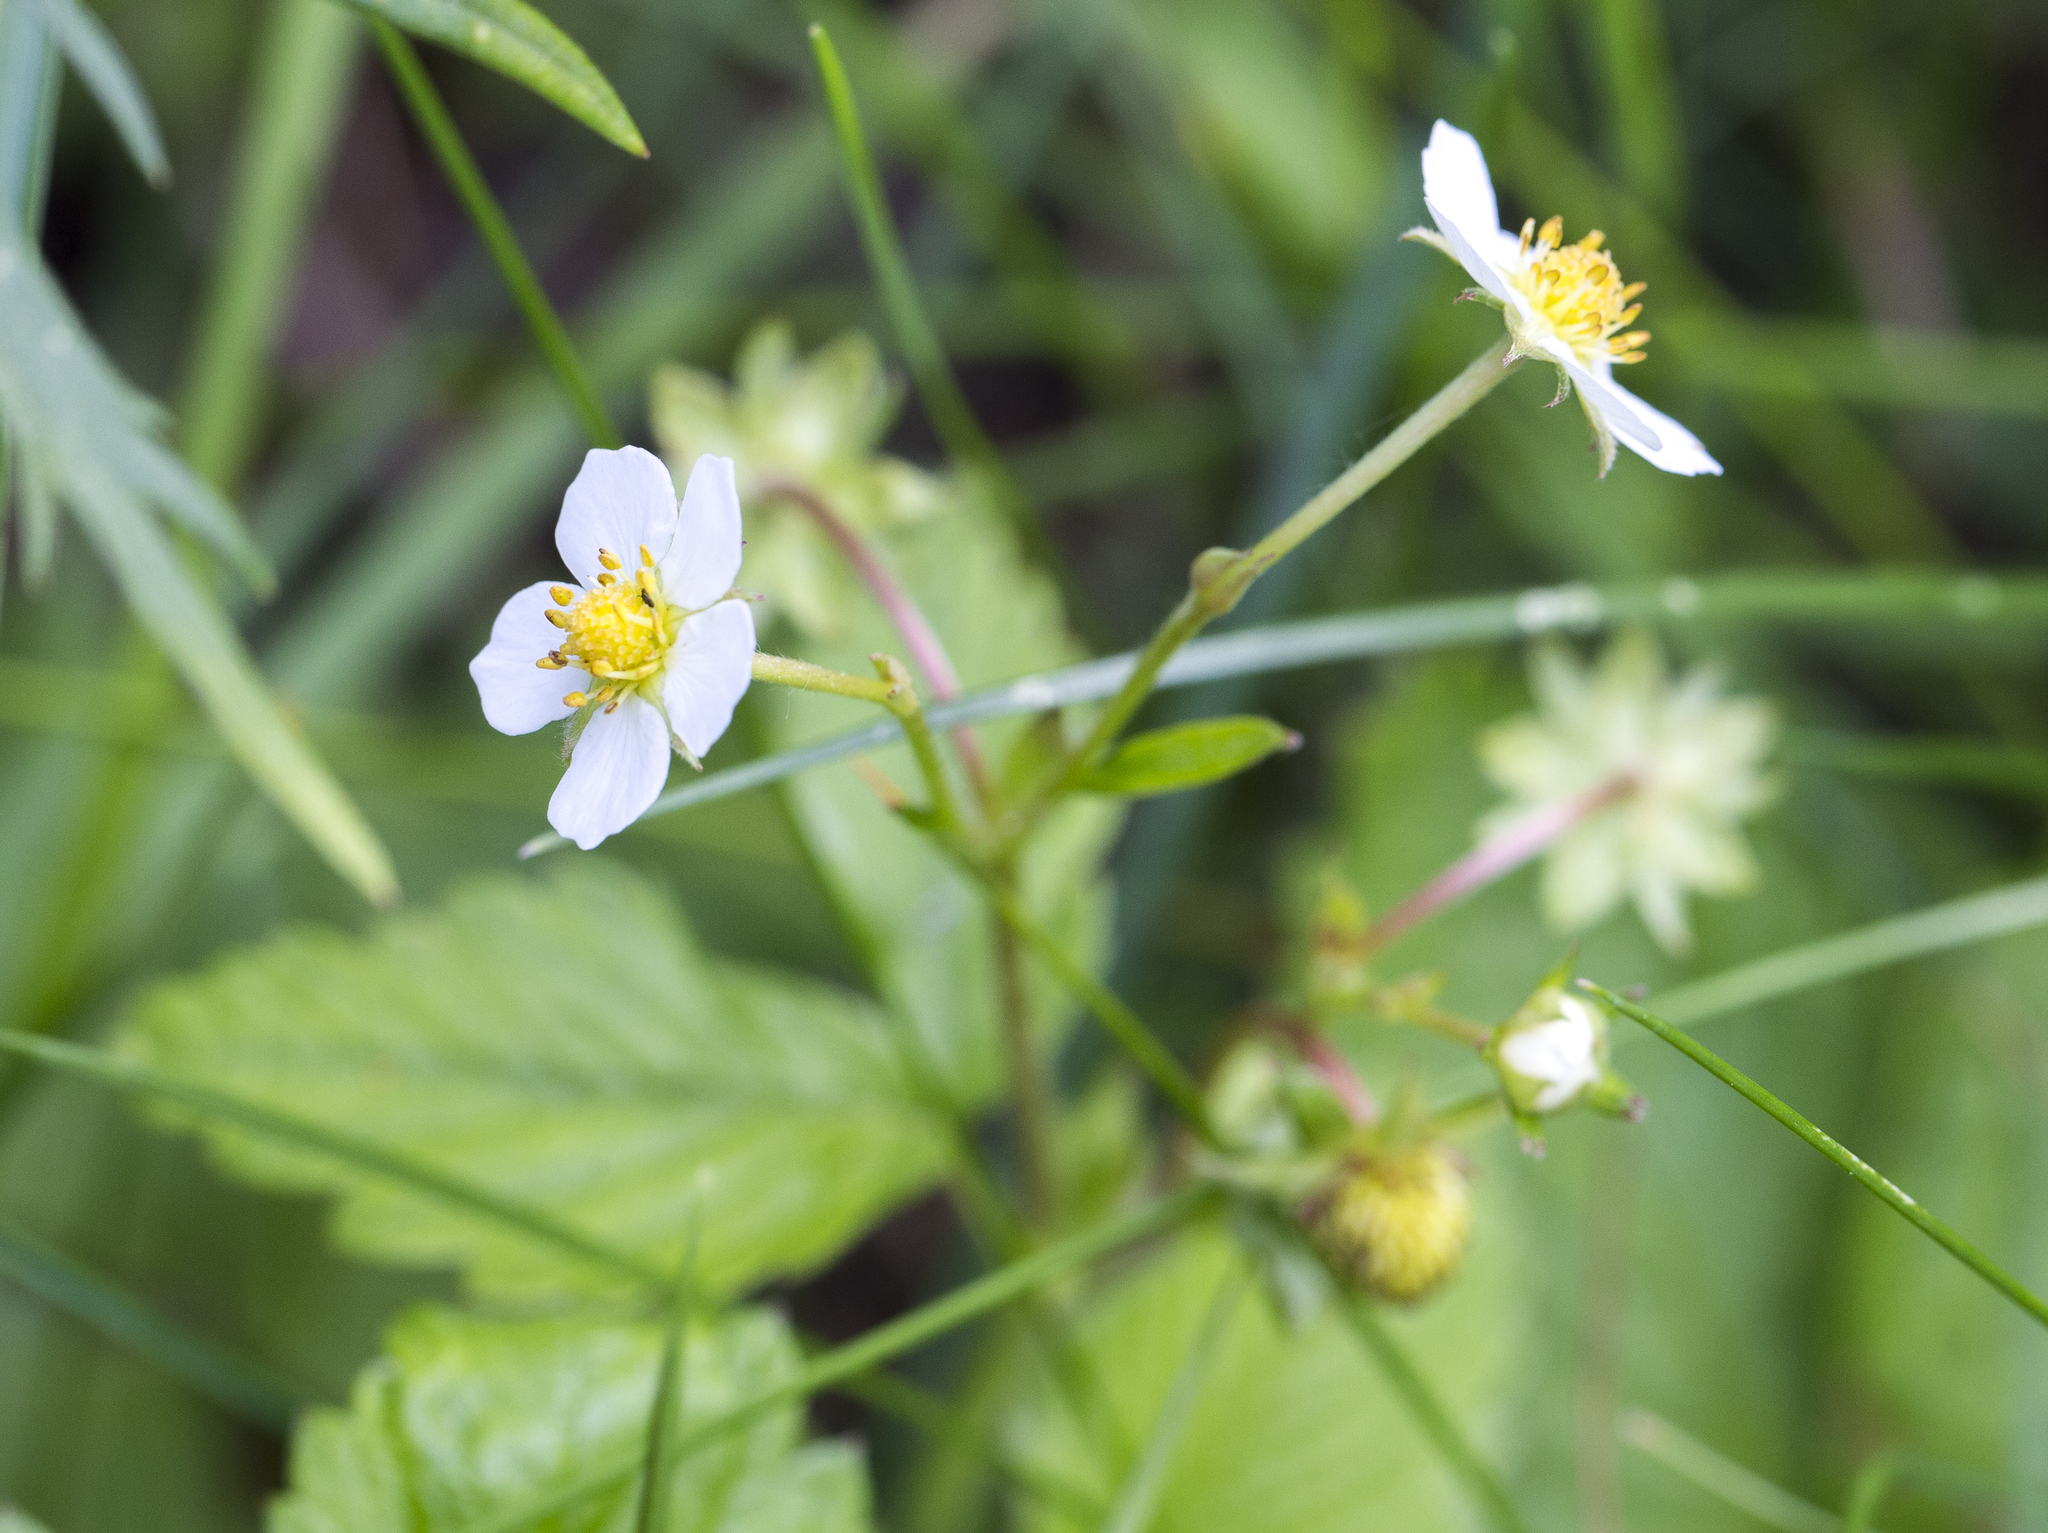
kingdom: Plantae
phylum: Tracheophyta
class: Magnoliopsida
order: Rosales
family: Rosaceae
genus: Fragaria
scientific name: Fragaria vesca
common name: Wild strawberry
